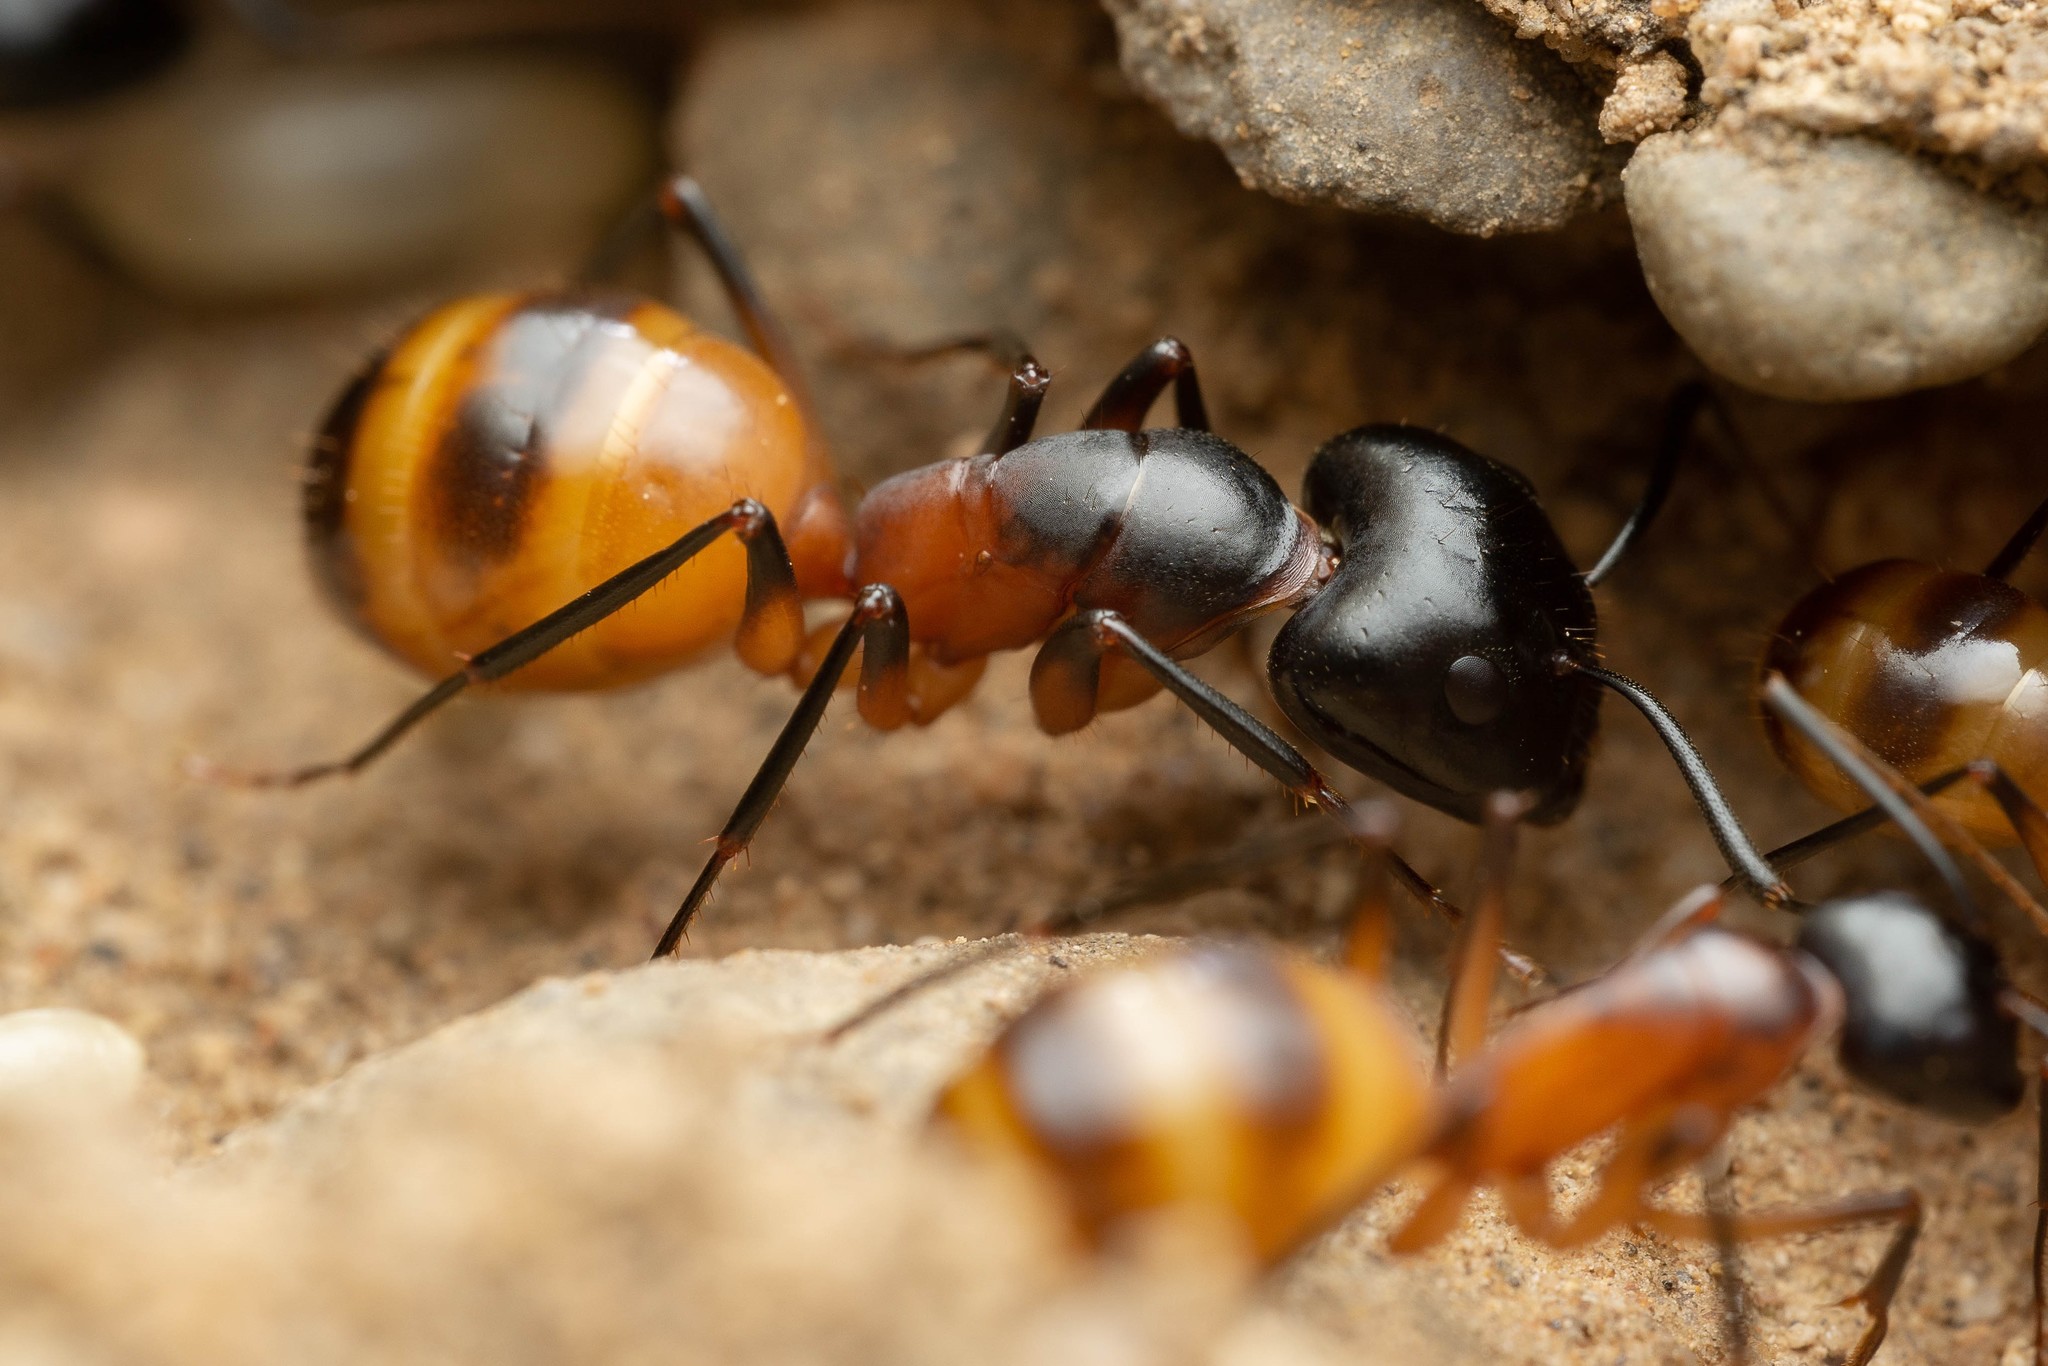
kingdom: Animalia
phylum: Arthropoda
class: Insecta
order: Hymenoptera
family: Formicidae
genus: Camponotus
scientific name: Camponotus ocreatus
